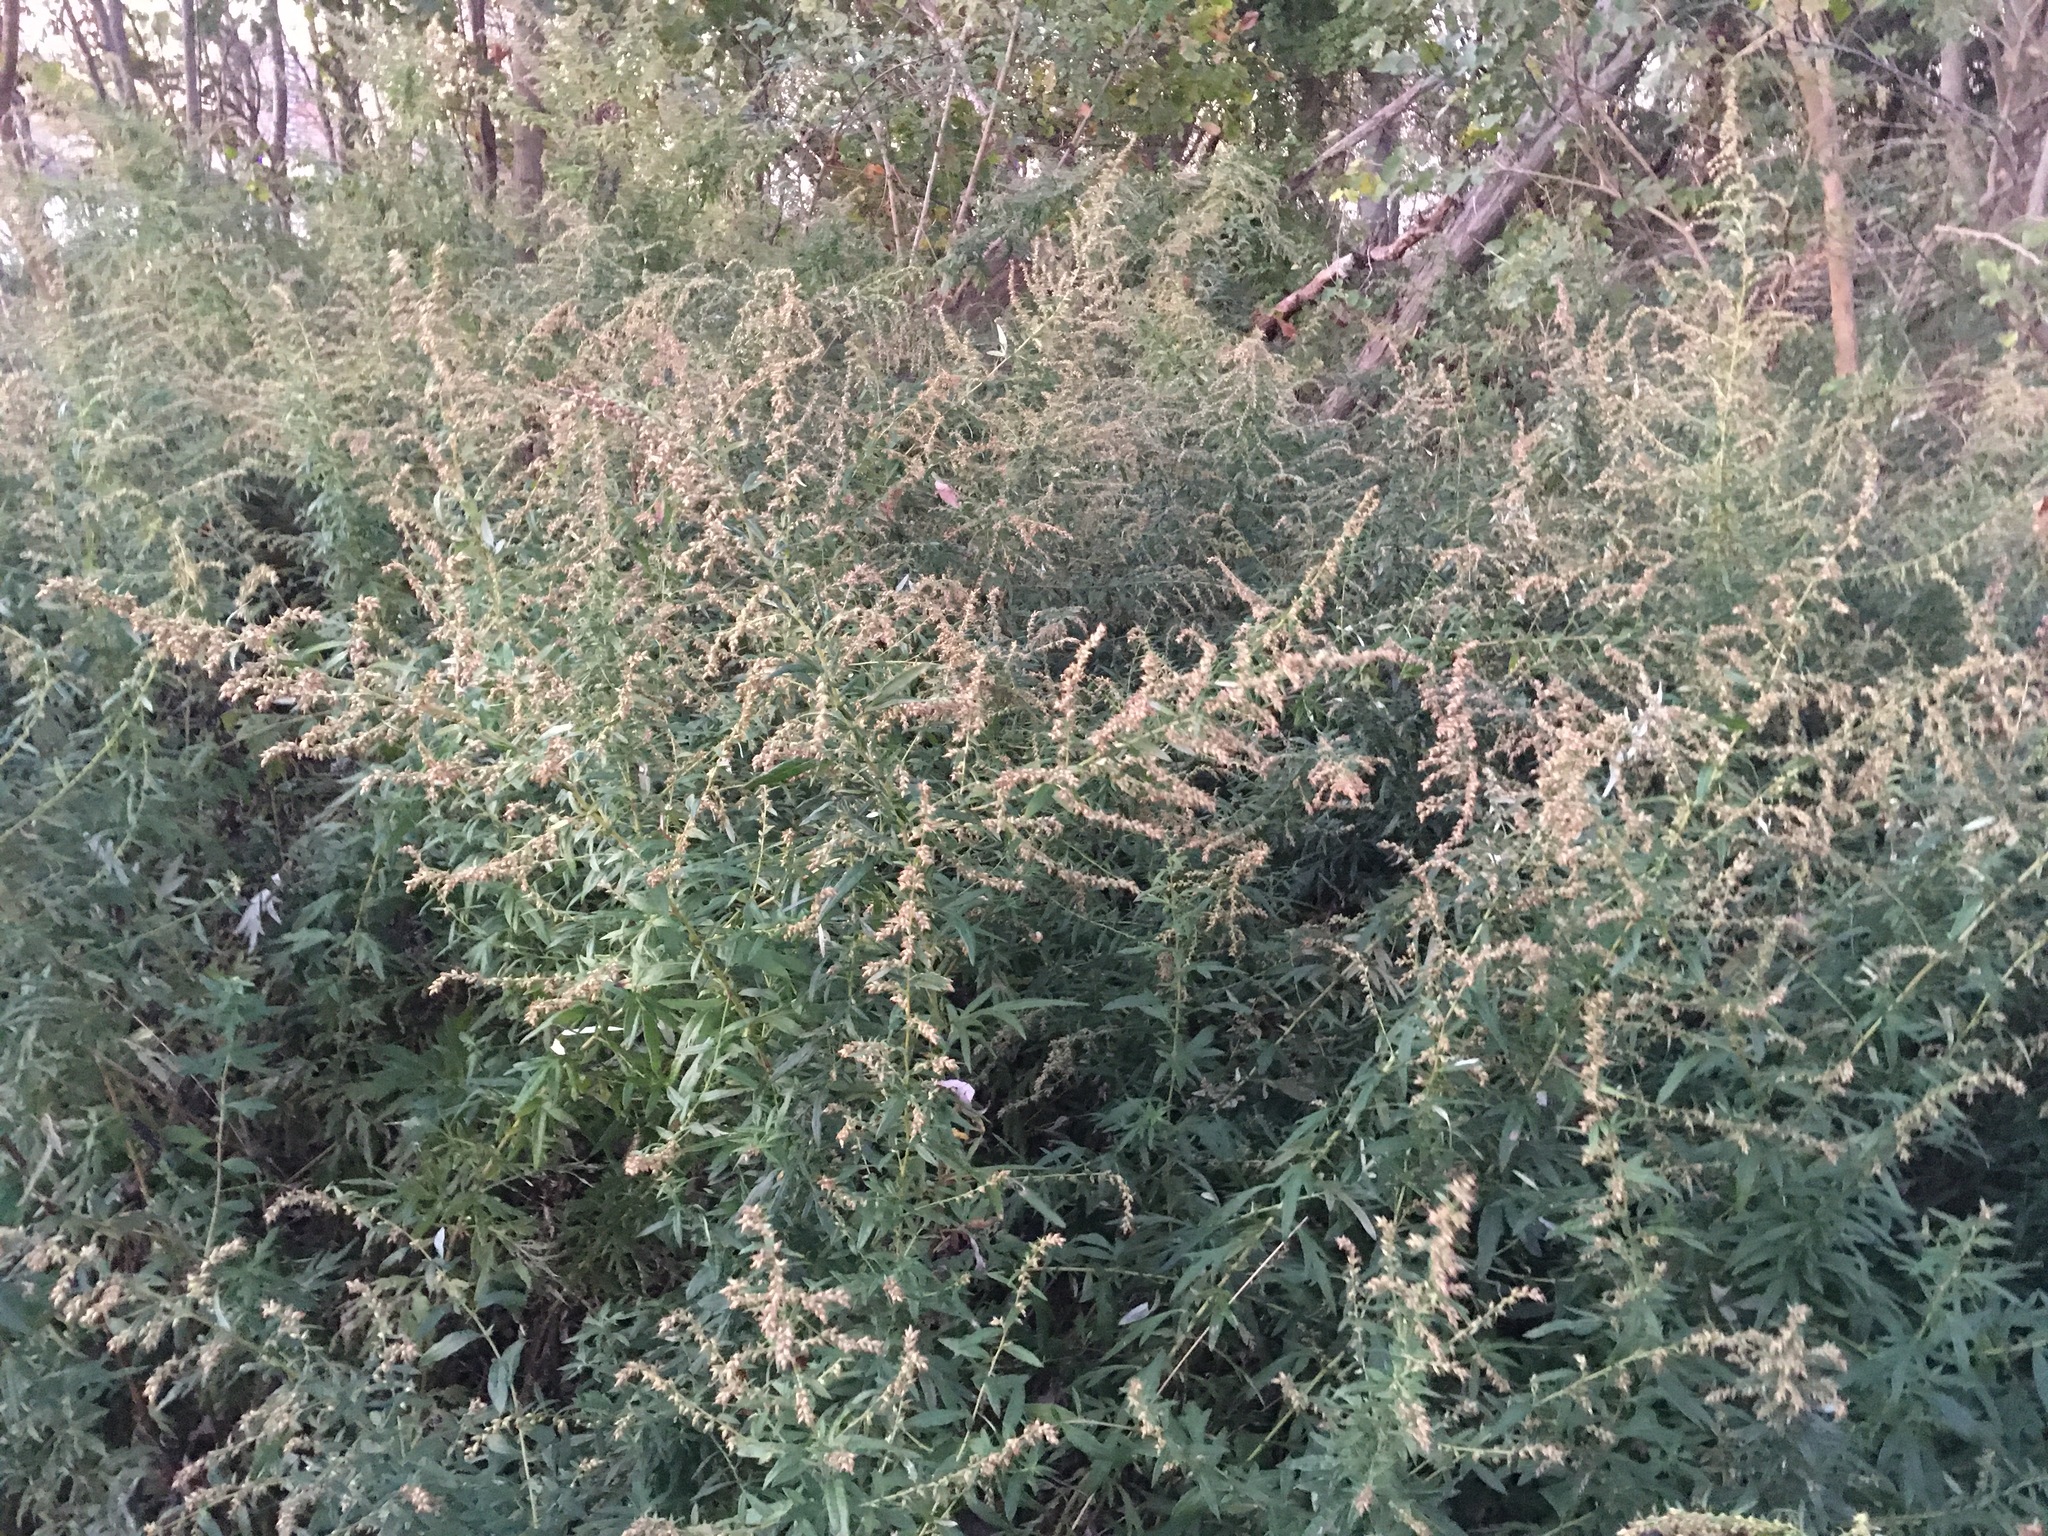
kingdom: Plantae
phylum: Tracheophyta
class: Magnoliopsida
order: Asterales
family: Asteraceae
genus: Artemisia
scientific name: Artemisia vulgaris
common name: Mugwort
